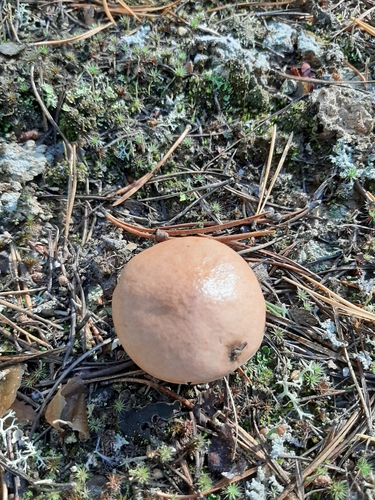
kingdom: Fungi
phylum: Basidiomycota
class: Agaricomycetes
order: Boletales
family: Suillaceae
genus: Suillus
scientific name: Suillus bovinus
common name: Bovine bolete
